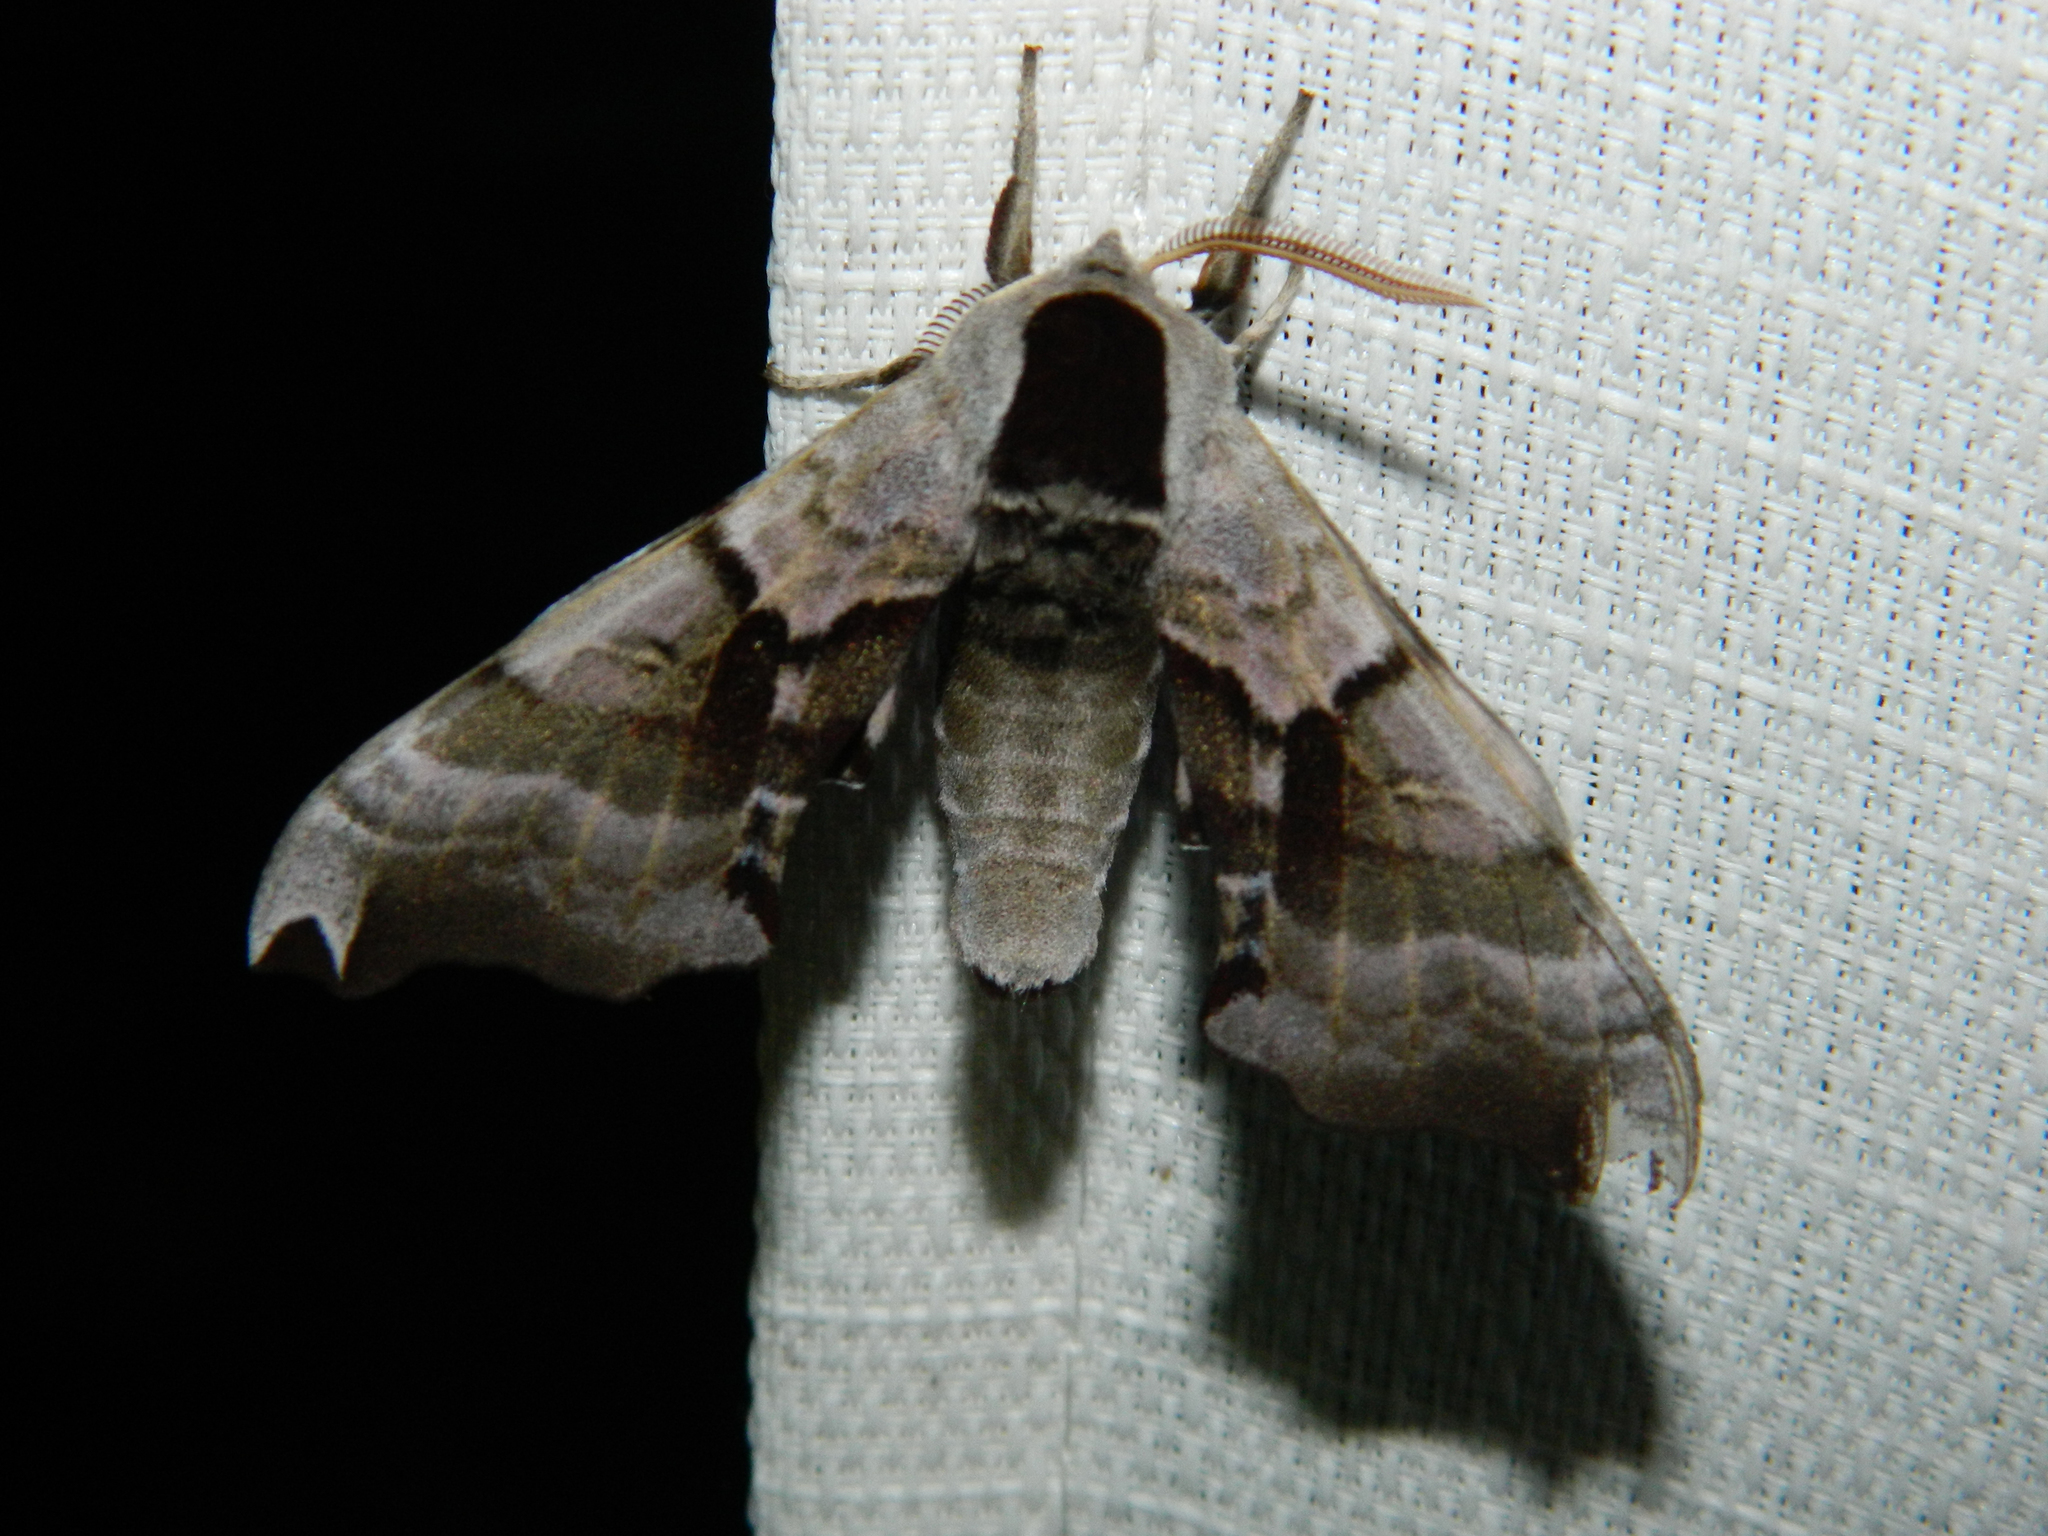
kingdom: Animalia
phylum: Arthropoda
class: Insecta
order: Lepidoptera
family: Sphingidae
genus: Smerinthus
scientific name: Smerinthus jamaicensis
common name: Twin spotted sphinx
